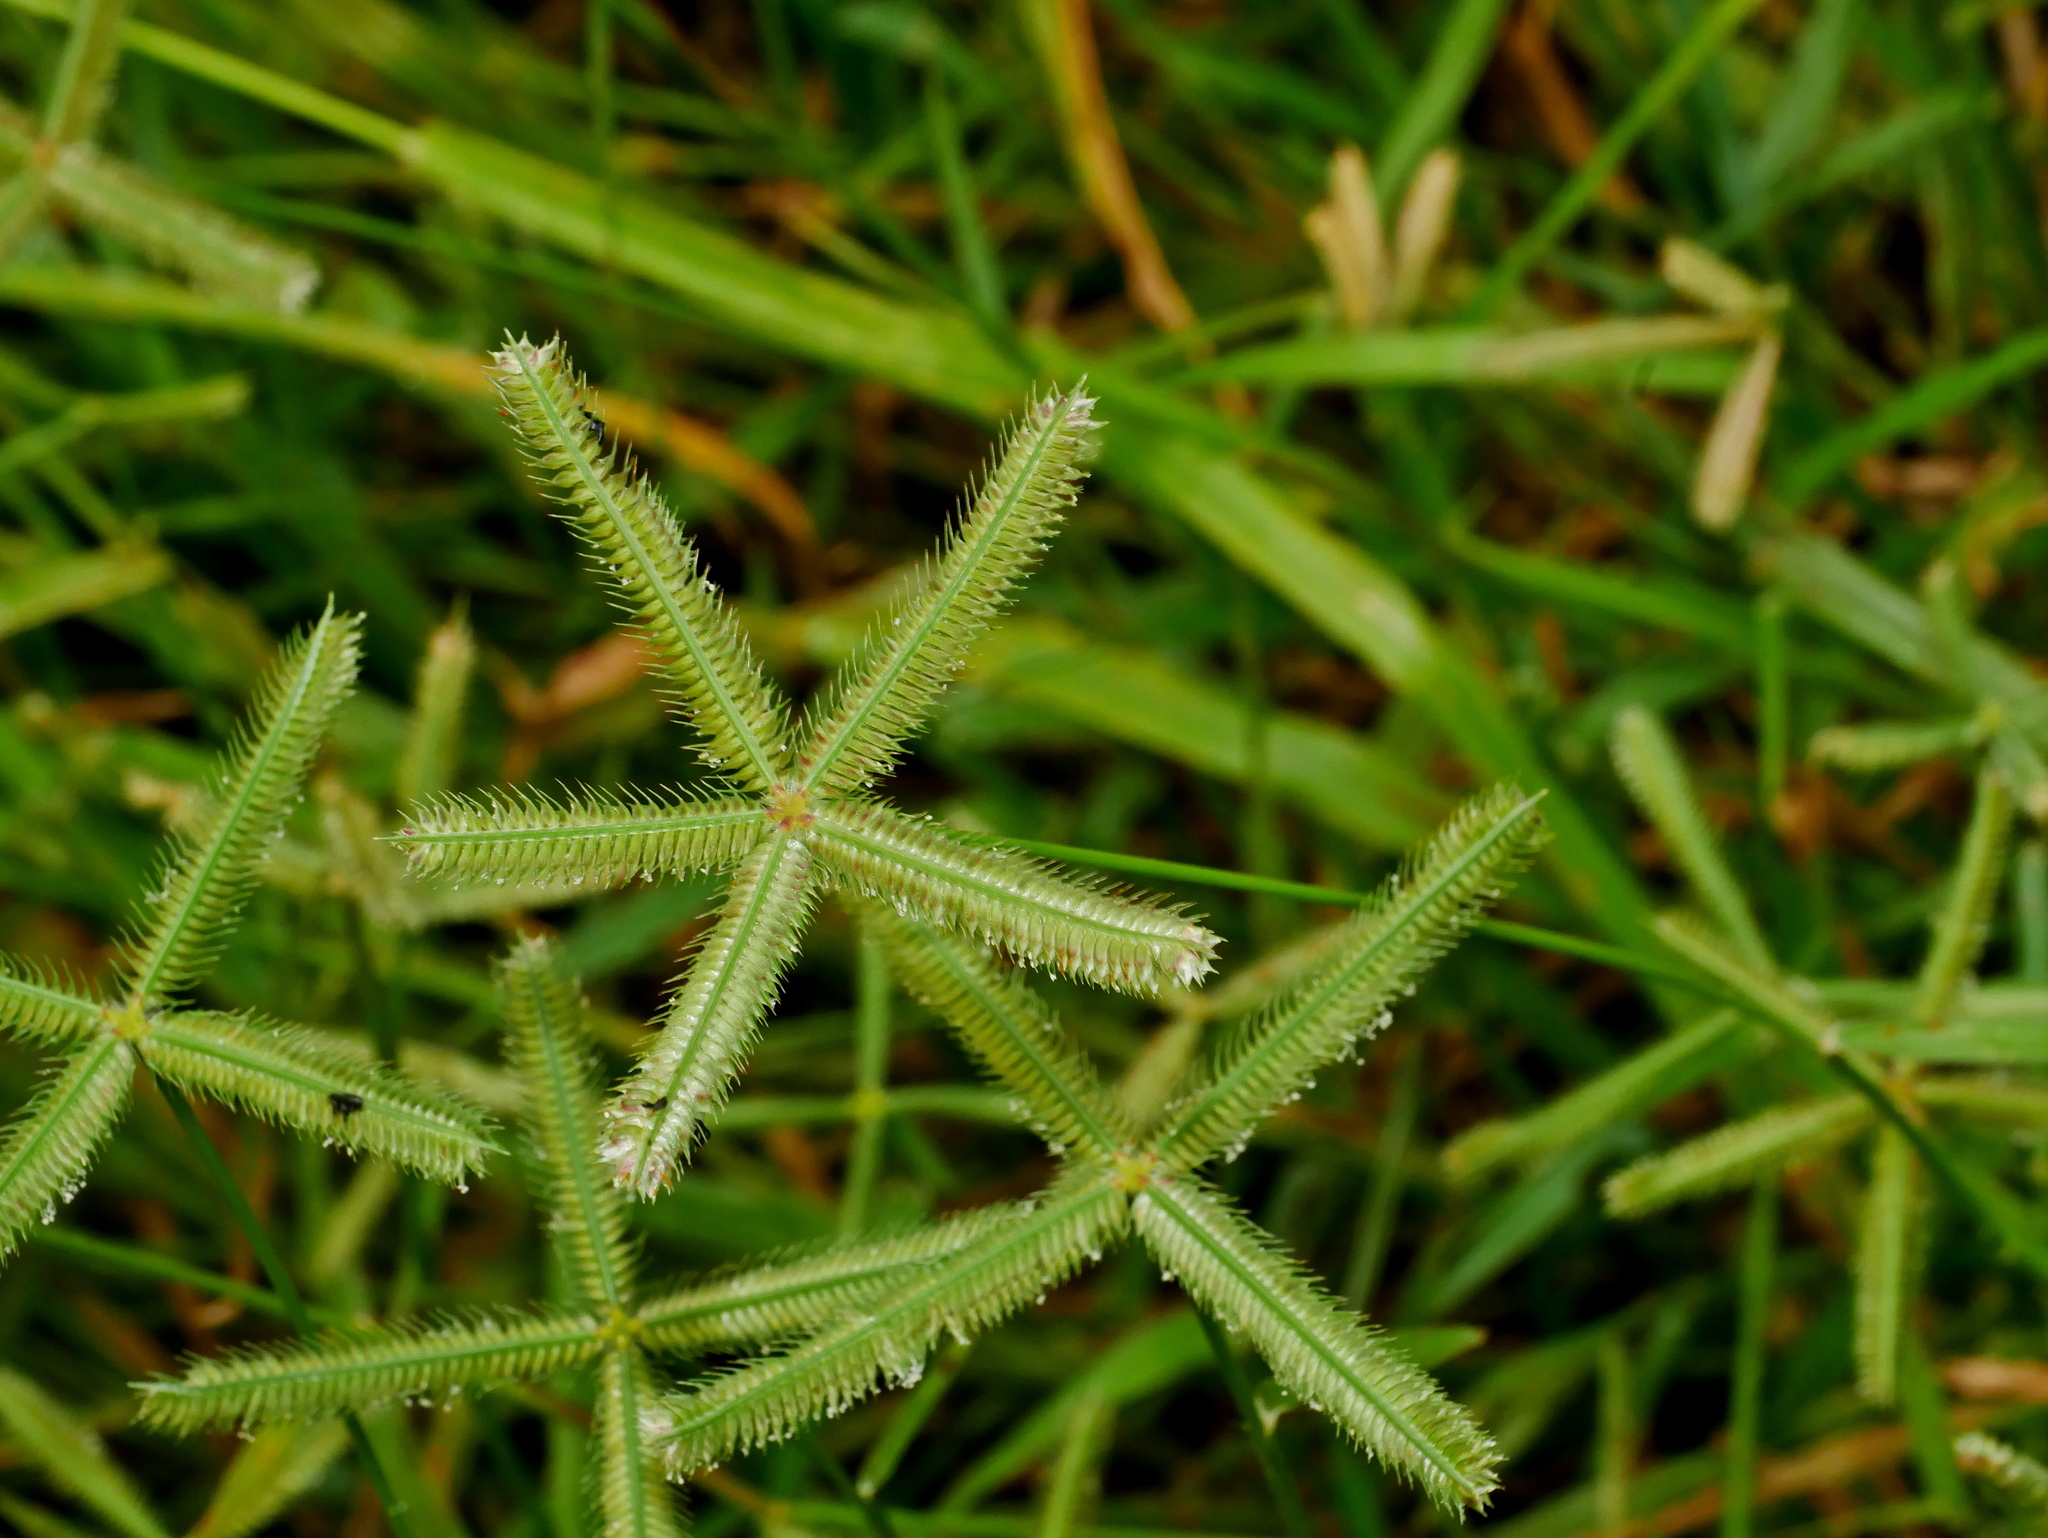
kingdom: Plantae
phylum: Tracheophyta
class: Liliopsida
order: Poales
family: Poaceae
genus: Dactyloctenium
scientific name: Dactyloctenium aegyptium
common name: Egyptian grass
